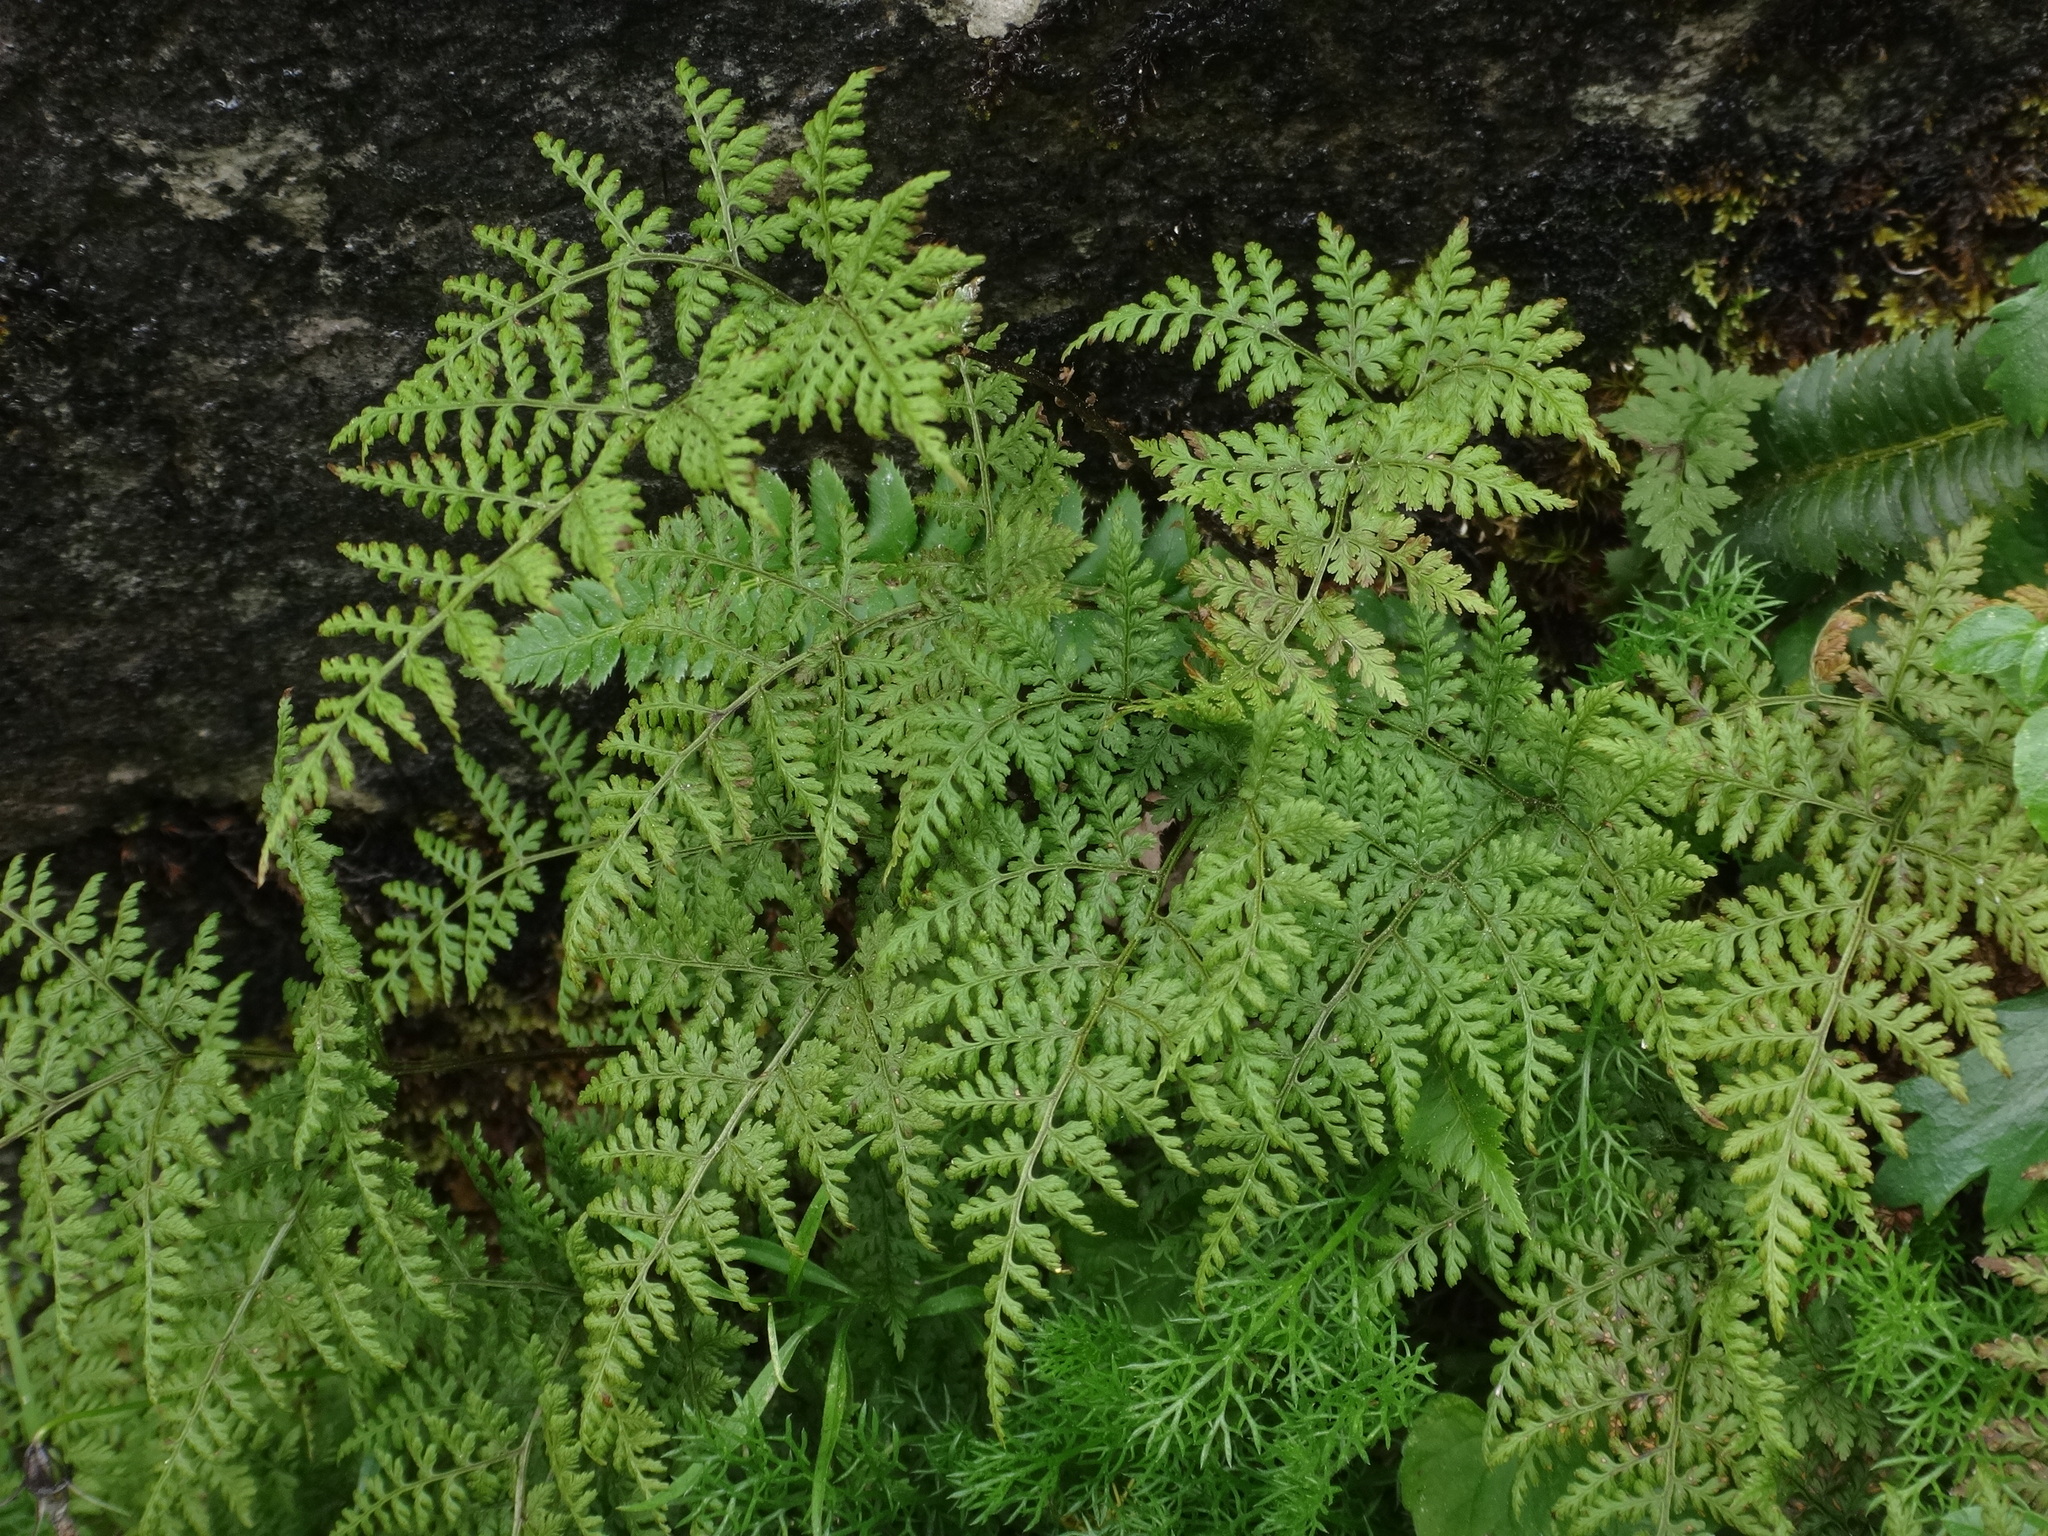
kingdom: Plantae
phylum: Tracheophyta
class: Polypodiopsida
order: Polypodiales
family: Cystopteridaceae
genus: Cystopteris
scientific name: Cystopteris montana
